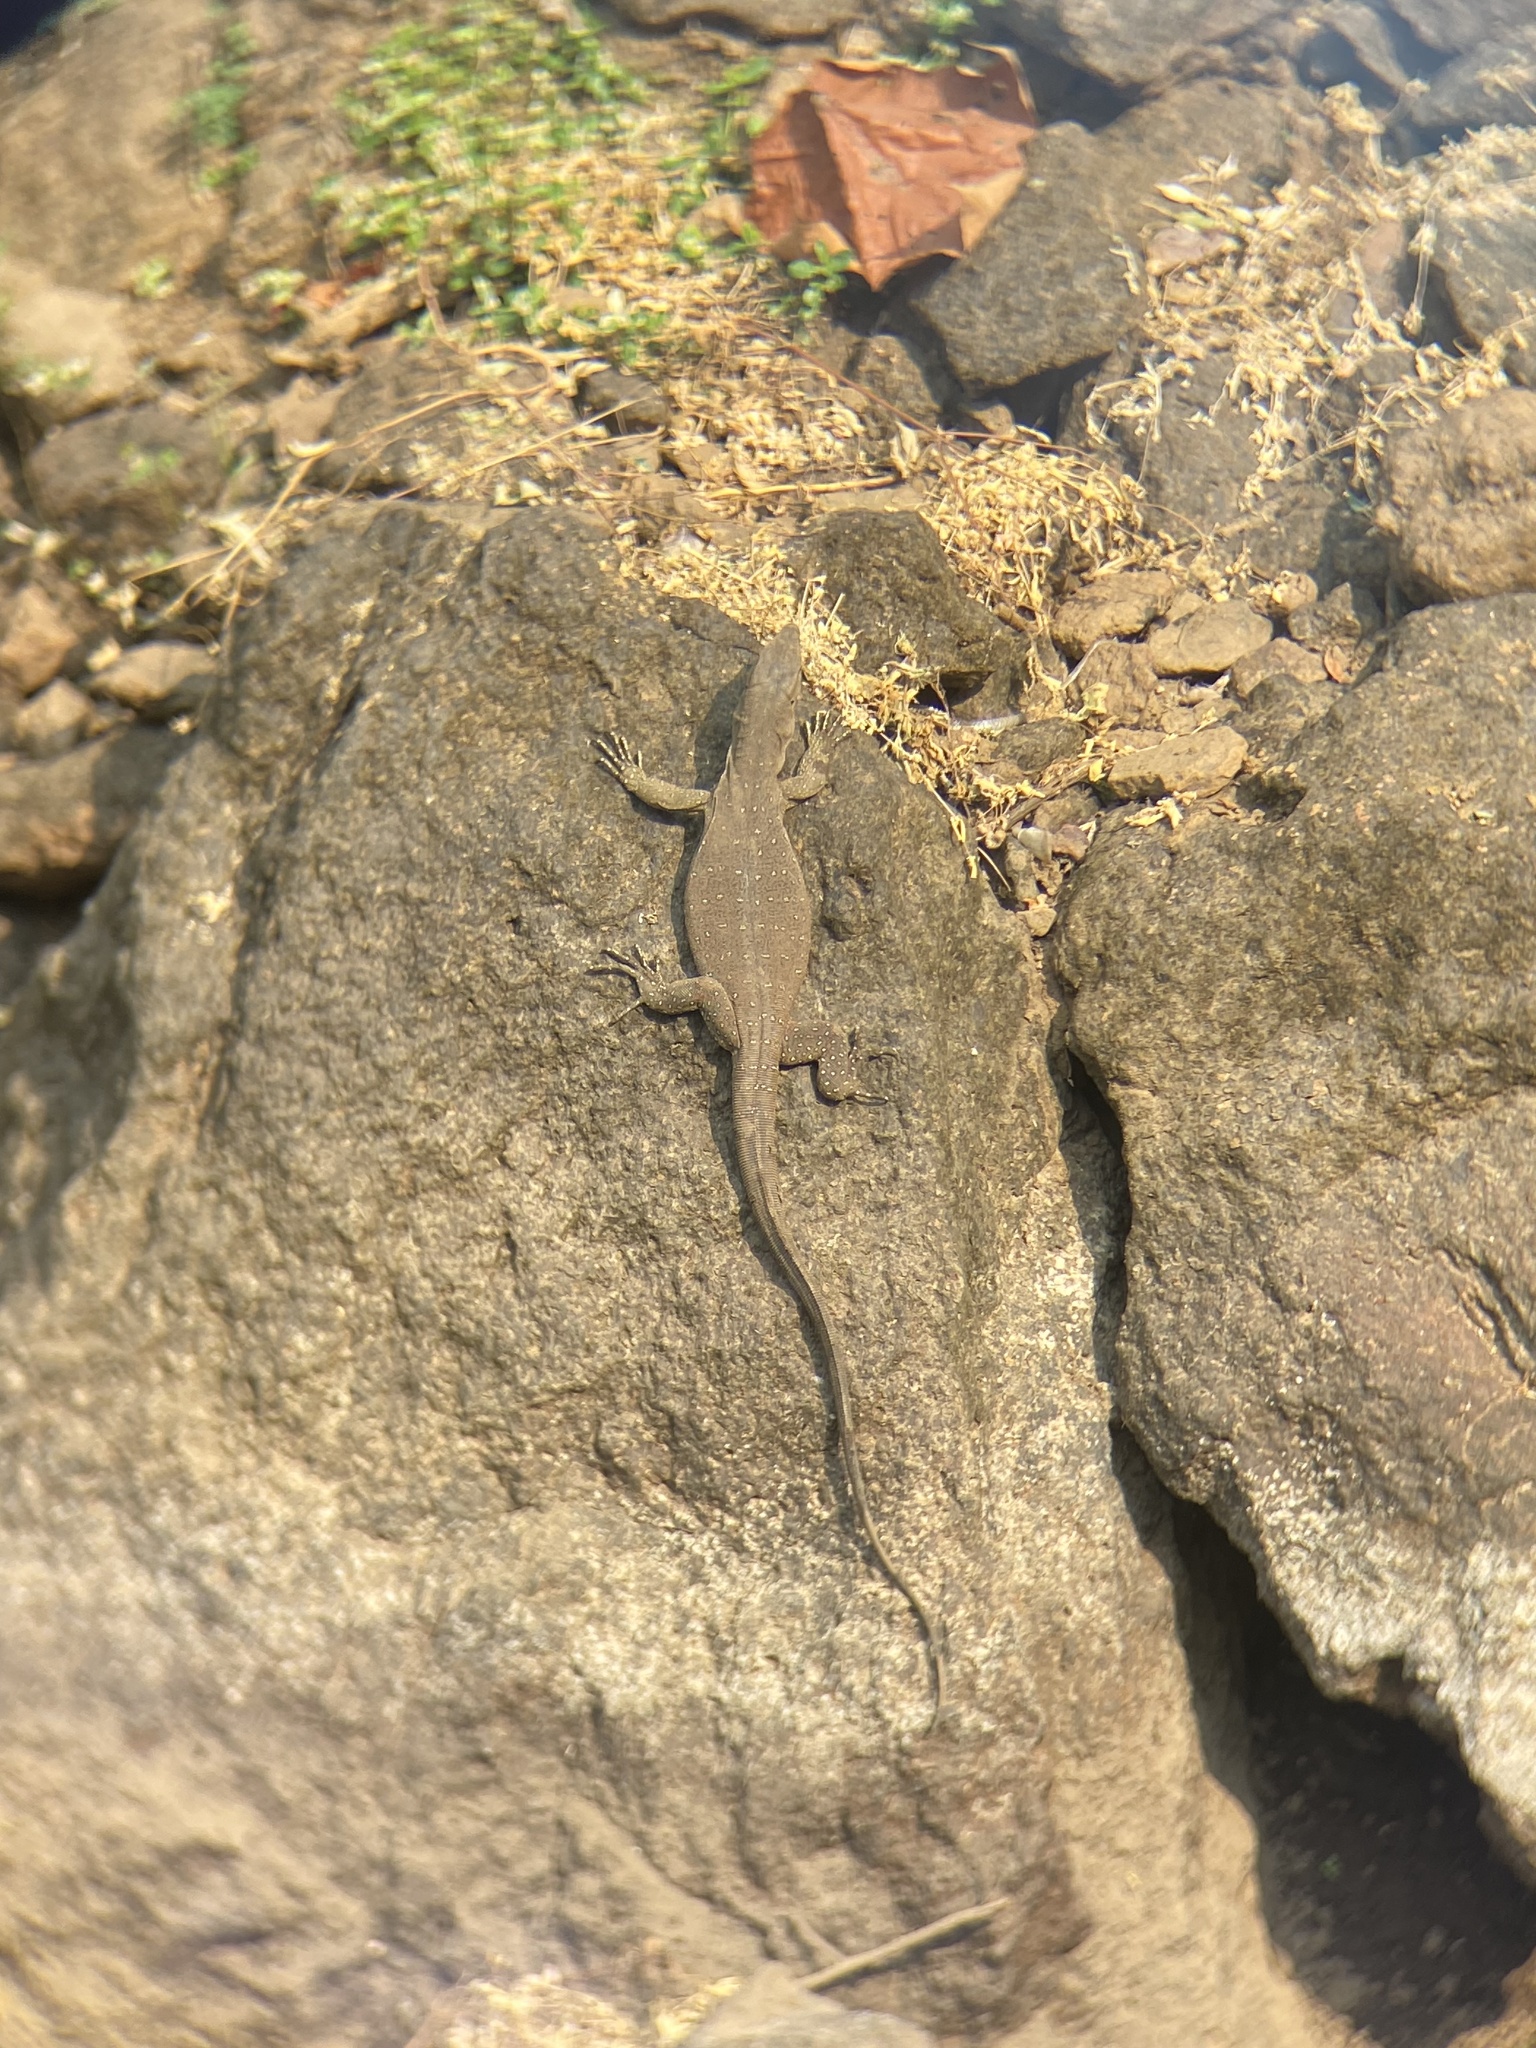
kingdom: Animalia
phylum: Chordata
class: Squamata
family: Varanidae
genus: Varanus
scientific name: Varanus bengalensis
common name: Bengal monitor
